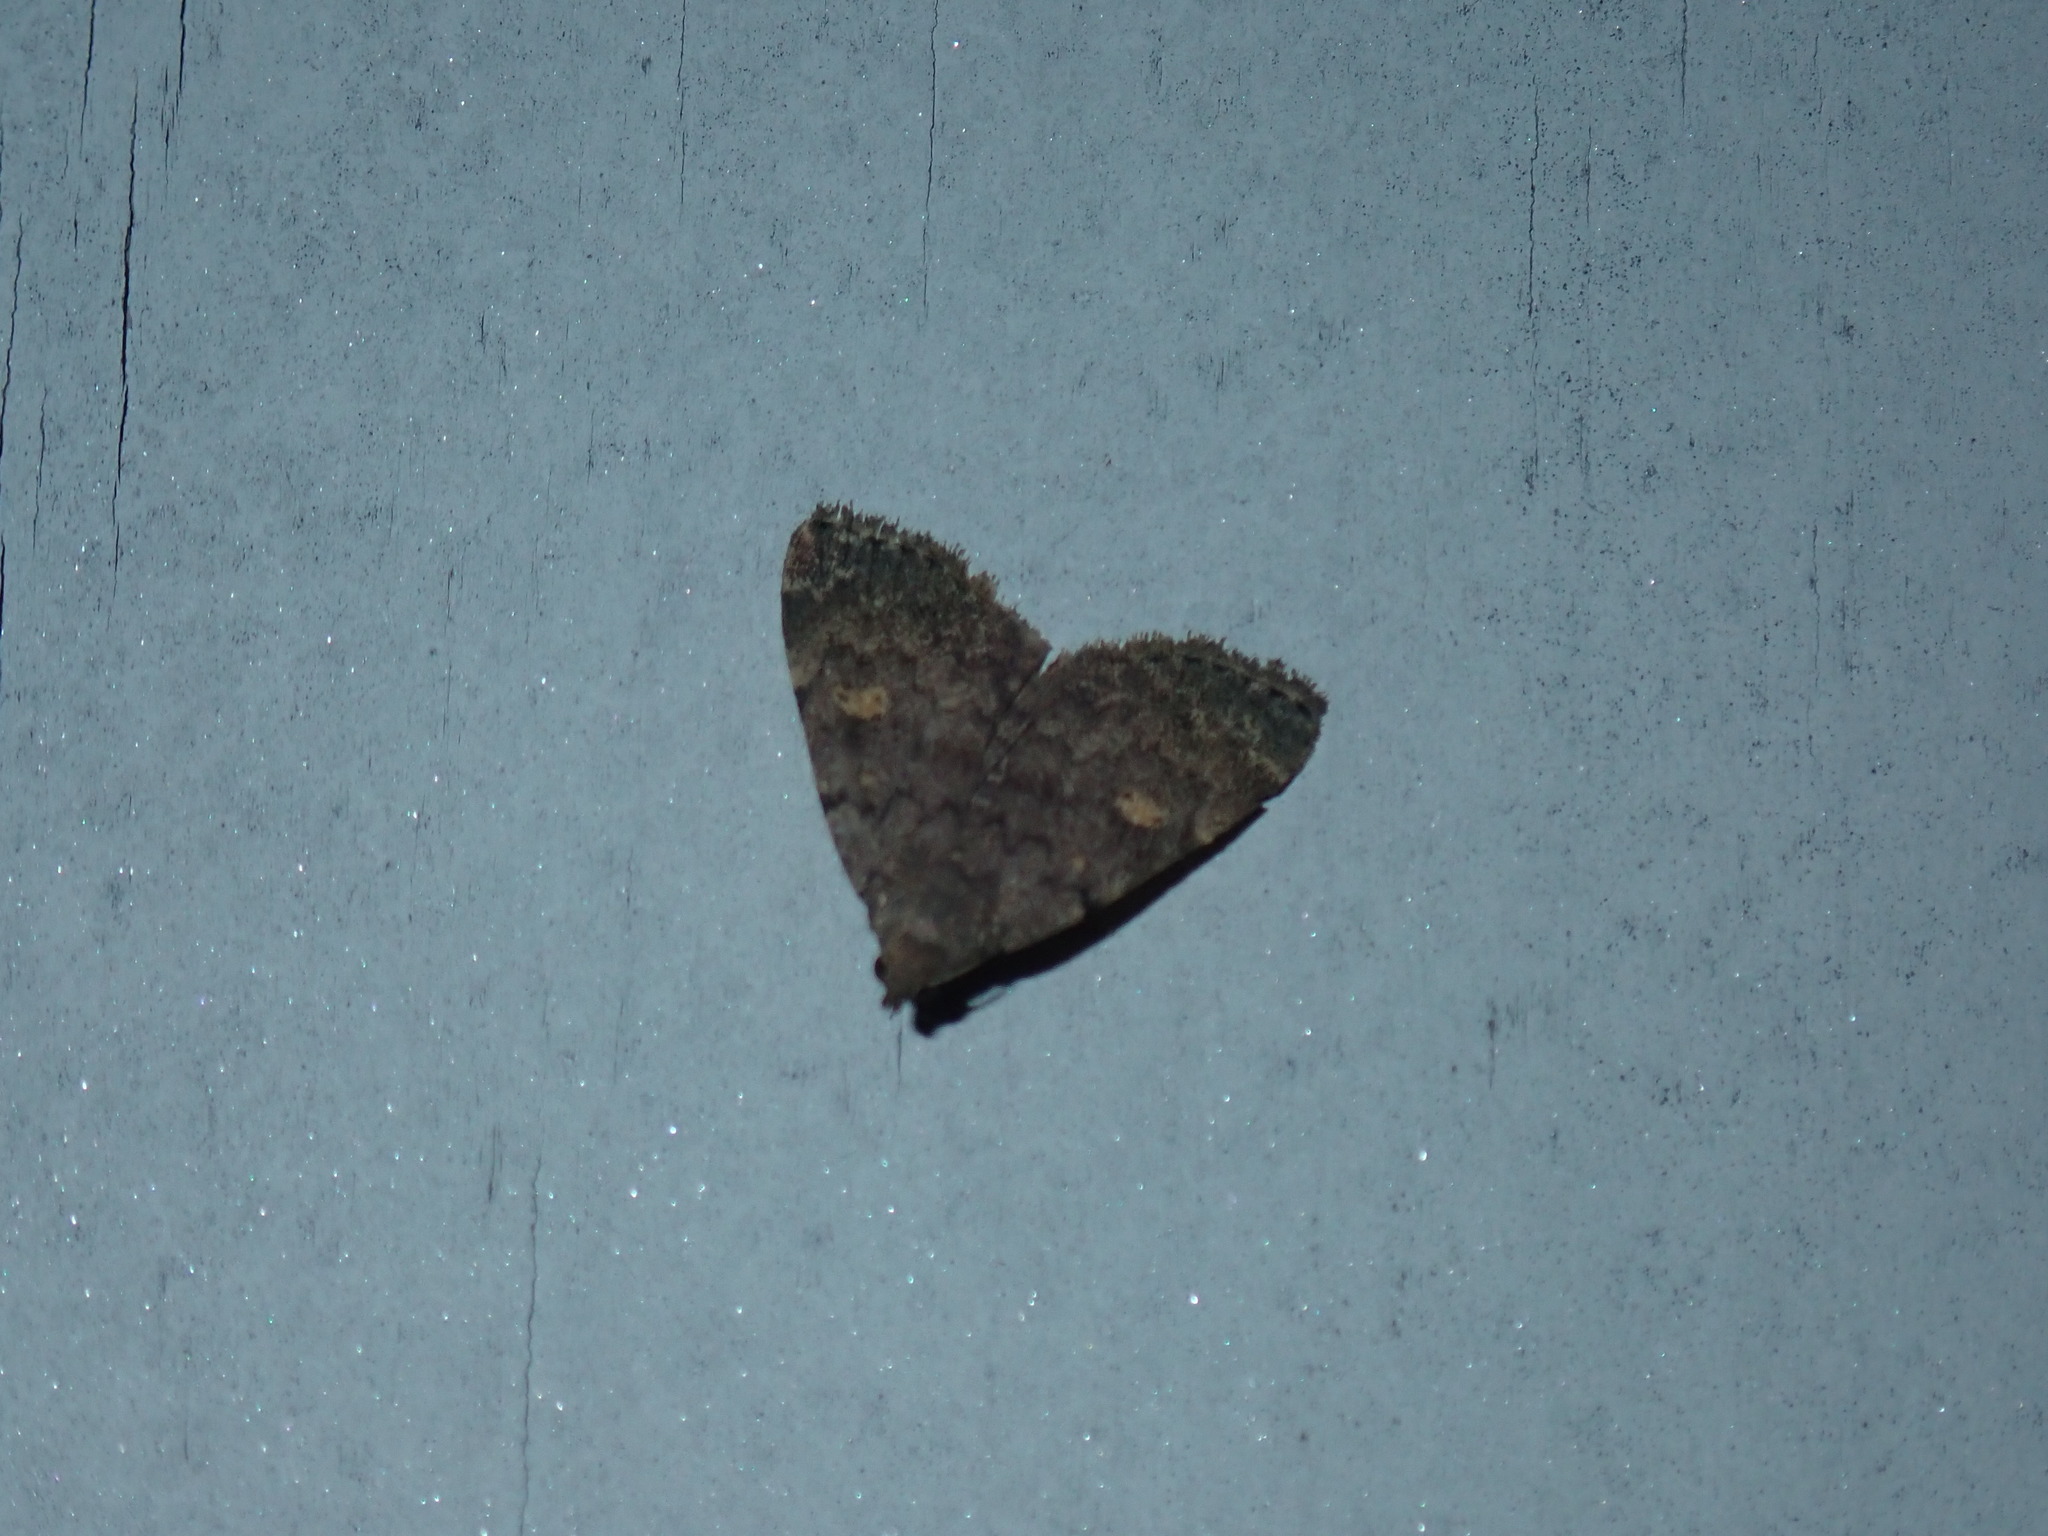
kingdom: Animalia
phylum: Arthropoda
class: Insecta
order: Lepidoptera
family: Erebidae
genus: Idia
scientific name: Idia aemula
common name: Common idia moth
